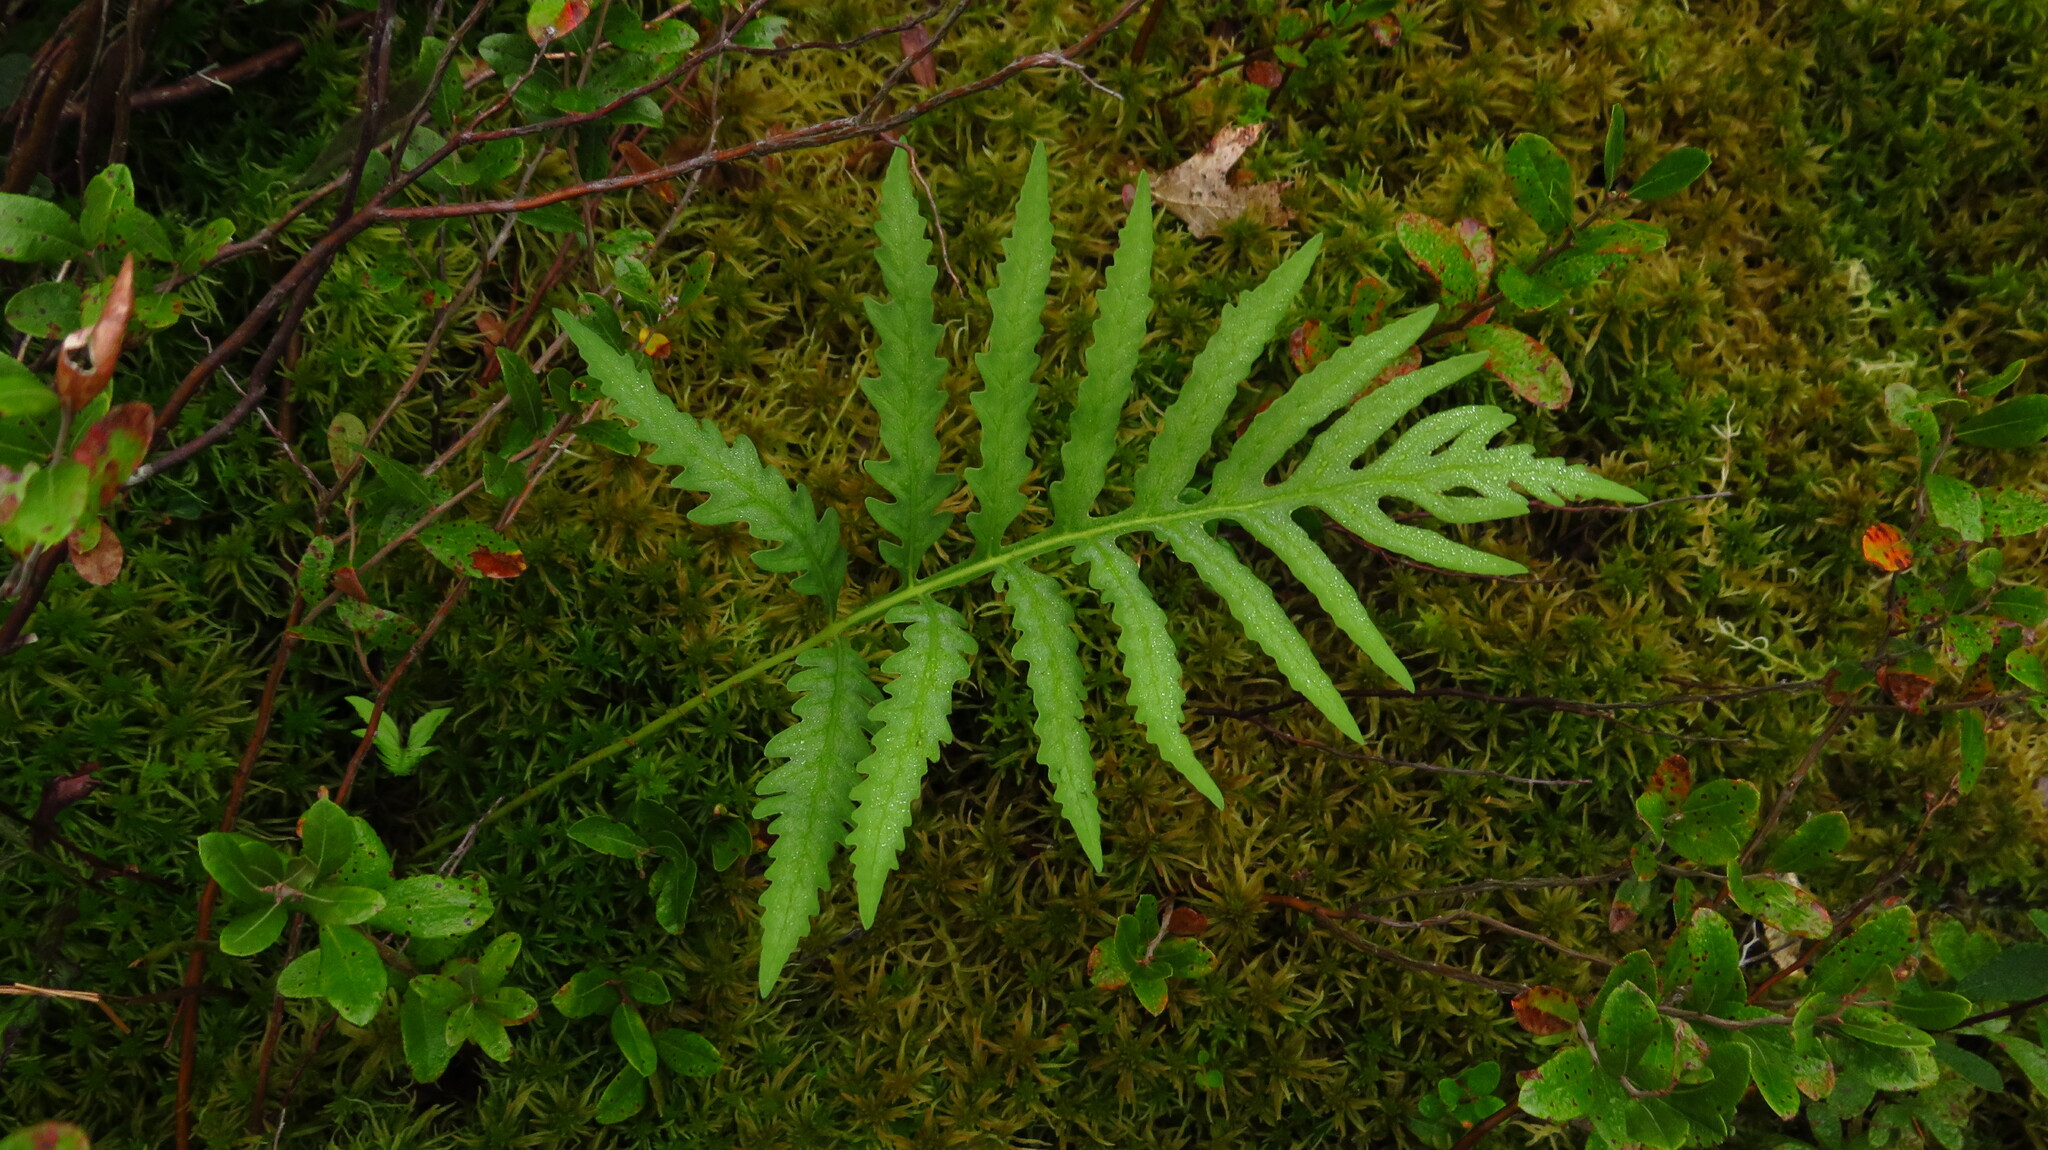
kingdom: Plantae
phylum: Tracheophyta
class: Polypodiopsida
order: Polypodiales
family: Onocleaceae
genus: Onoclea
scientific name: Onoclea sensibilis
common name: Sensitive fern
